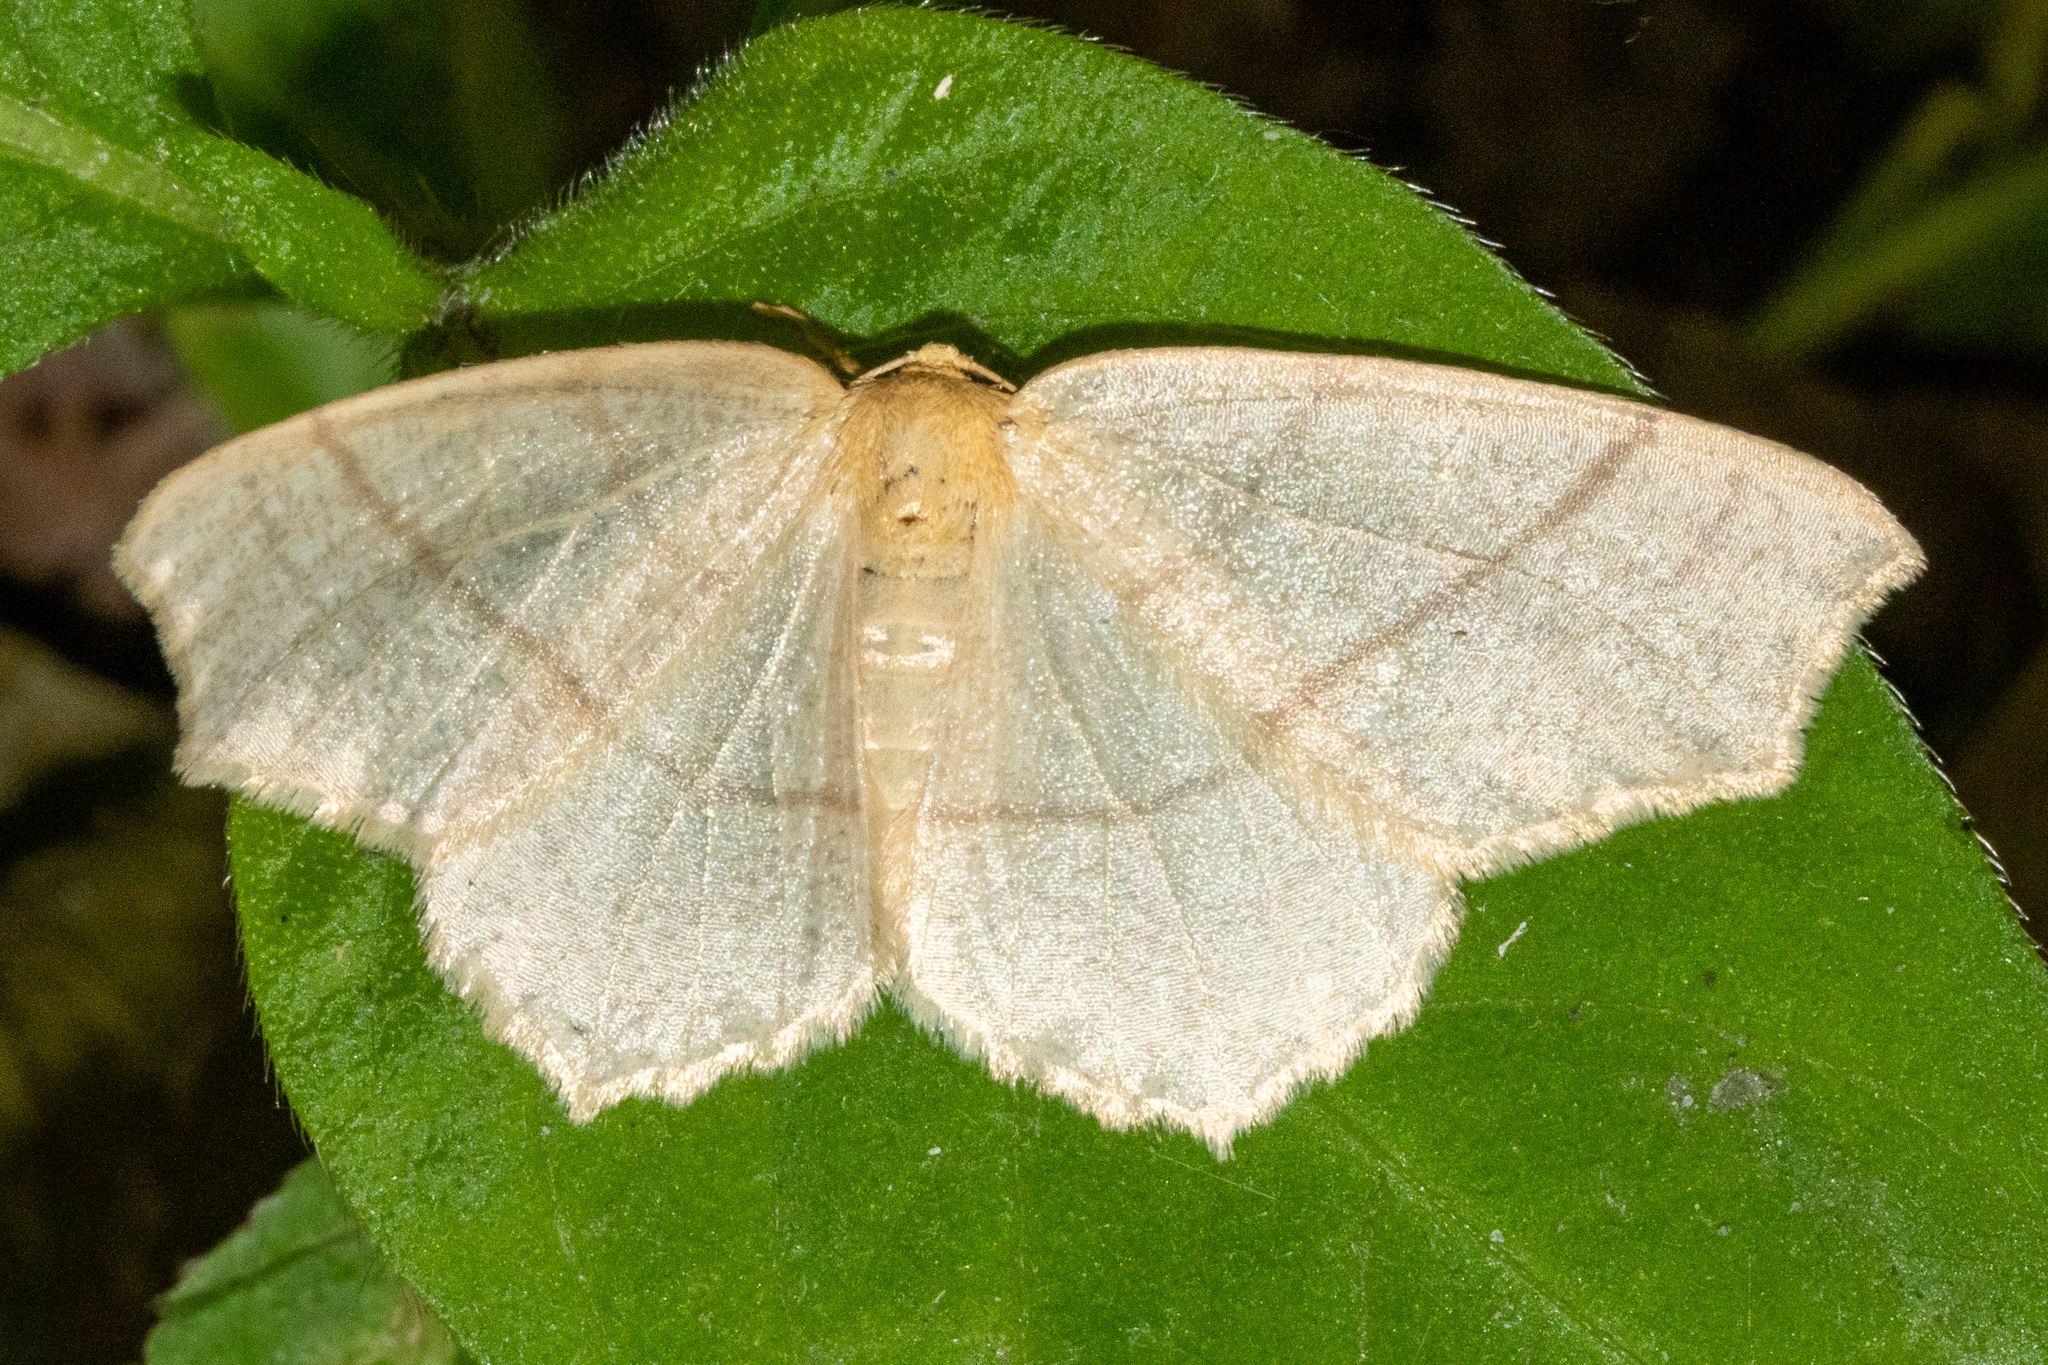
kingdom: Animalia
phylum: Arthropoda
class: Insecta
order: Lepidoptera
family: Geometridae
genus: Besma
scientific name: Besma endropiaria
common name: Straw besma
